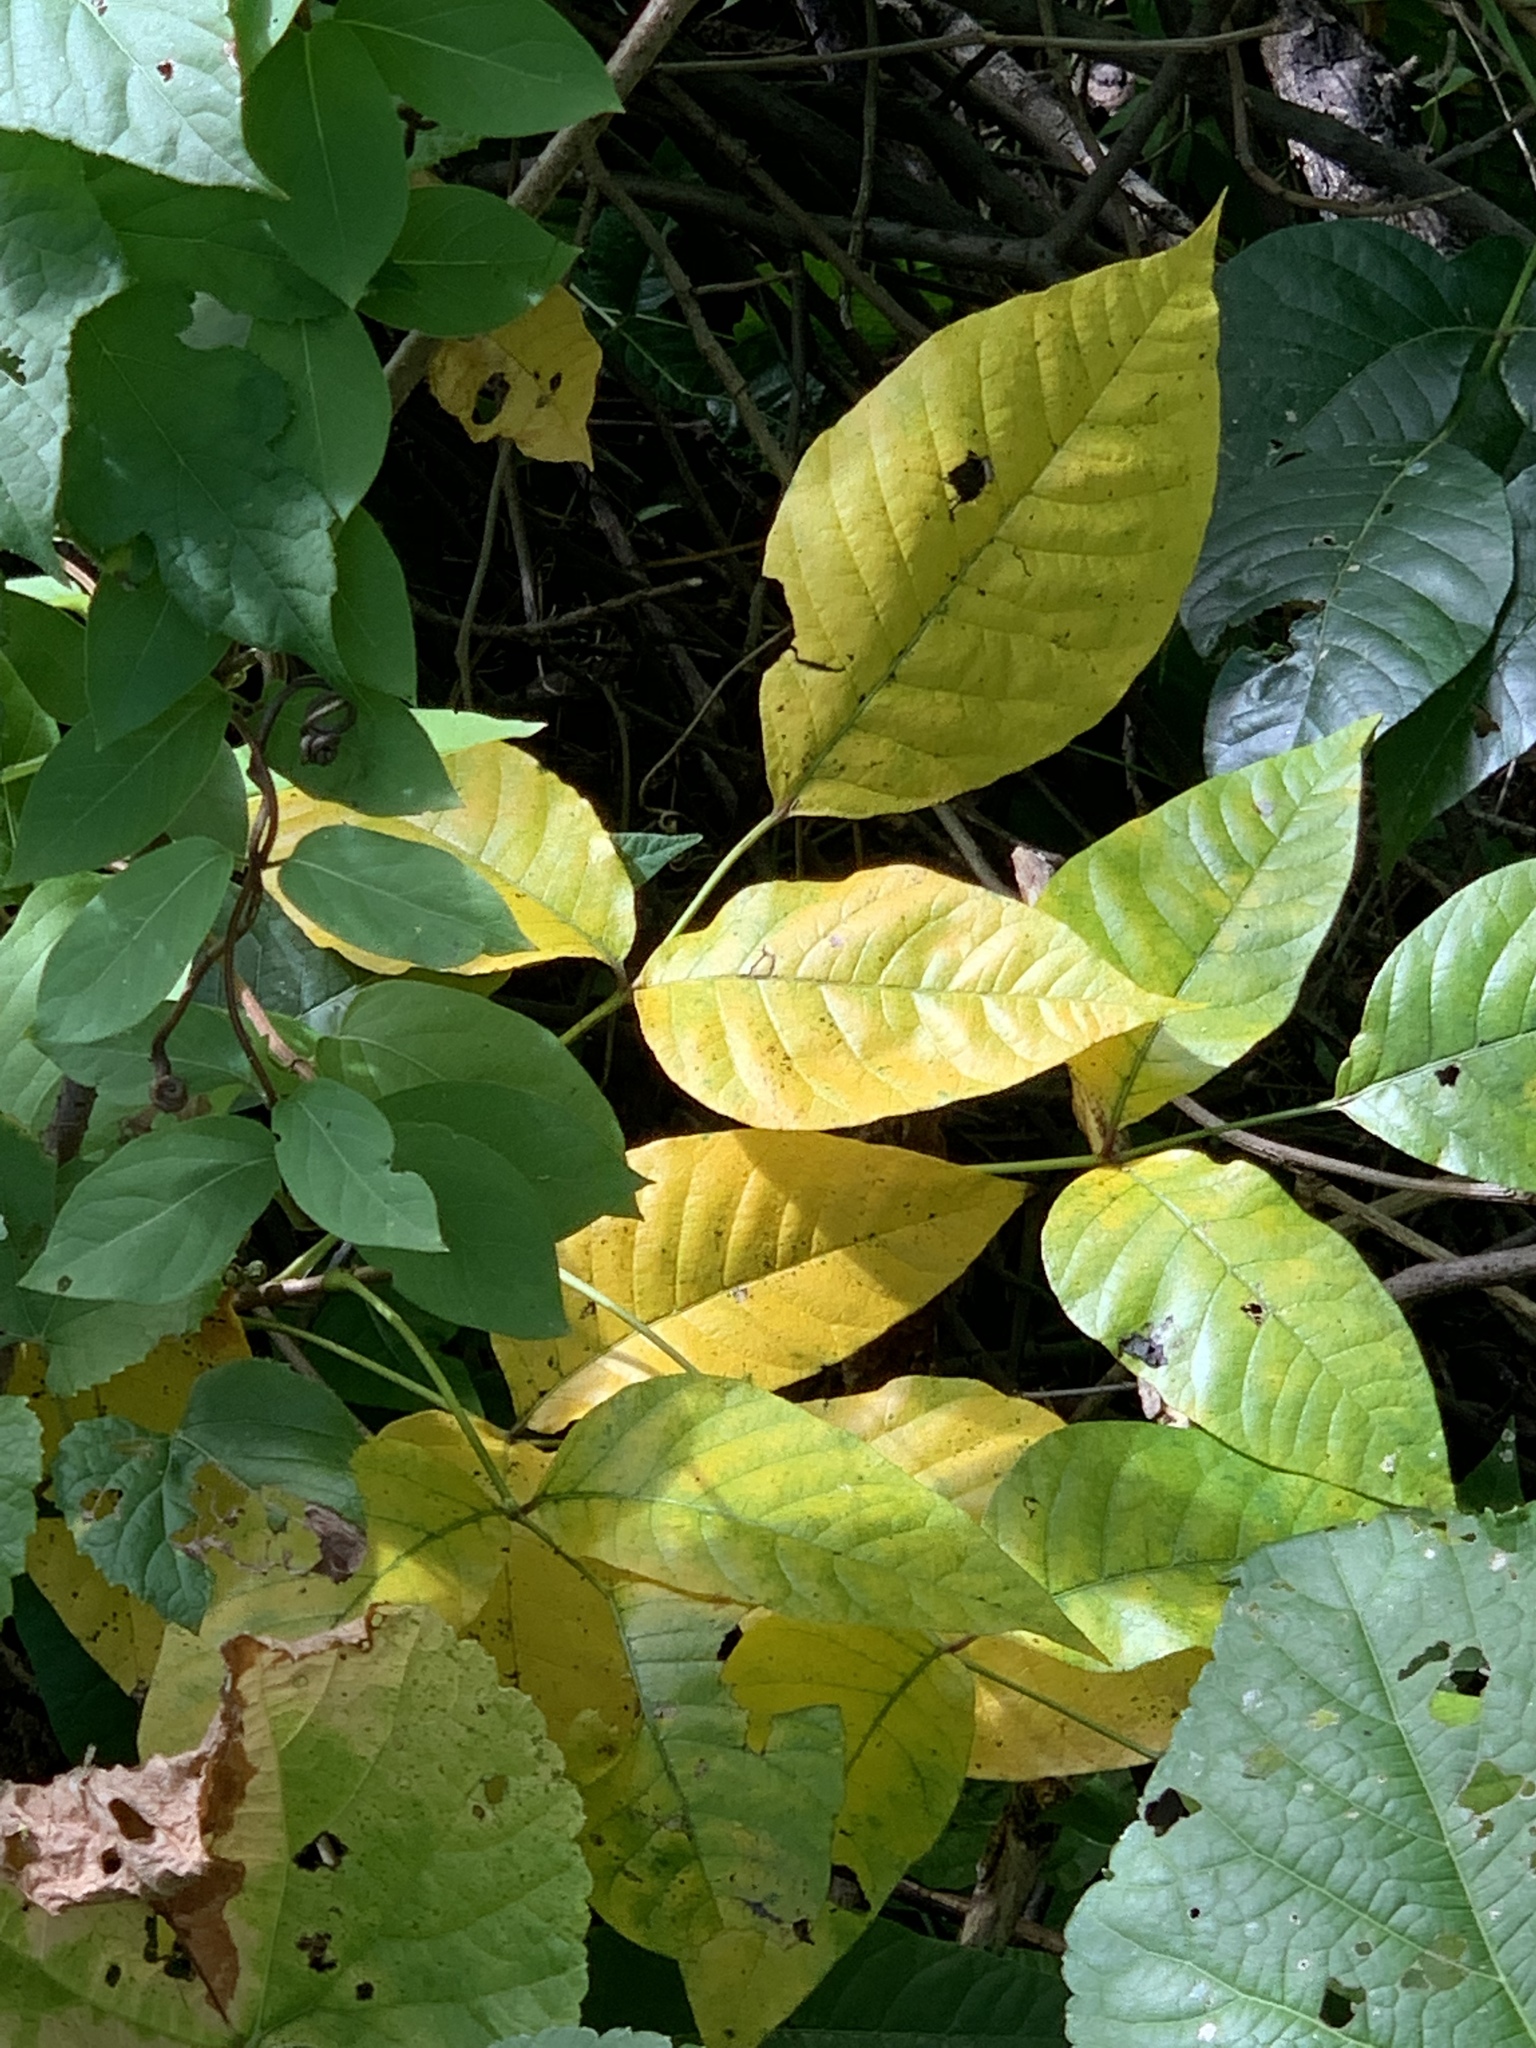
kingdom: Plantae
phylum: Tracheophyta
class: Magnoliopsida
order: Sapindales
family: Anacardiaceae
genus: Toxicodendron
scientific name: Toxicodendron radicans
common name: Poison ivy
